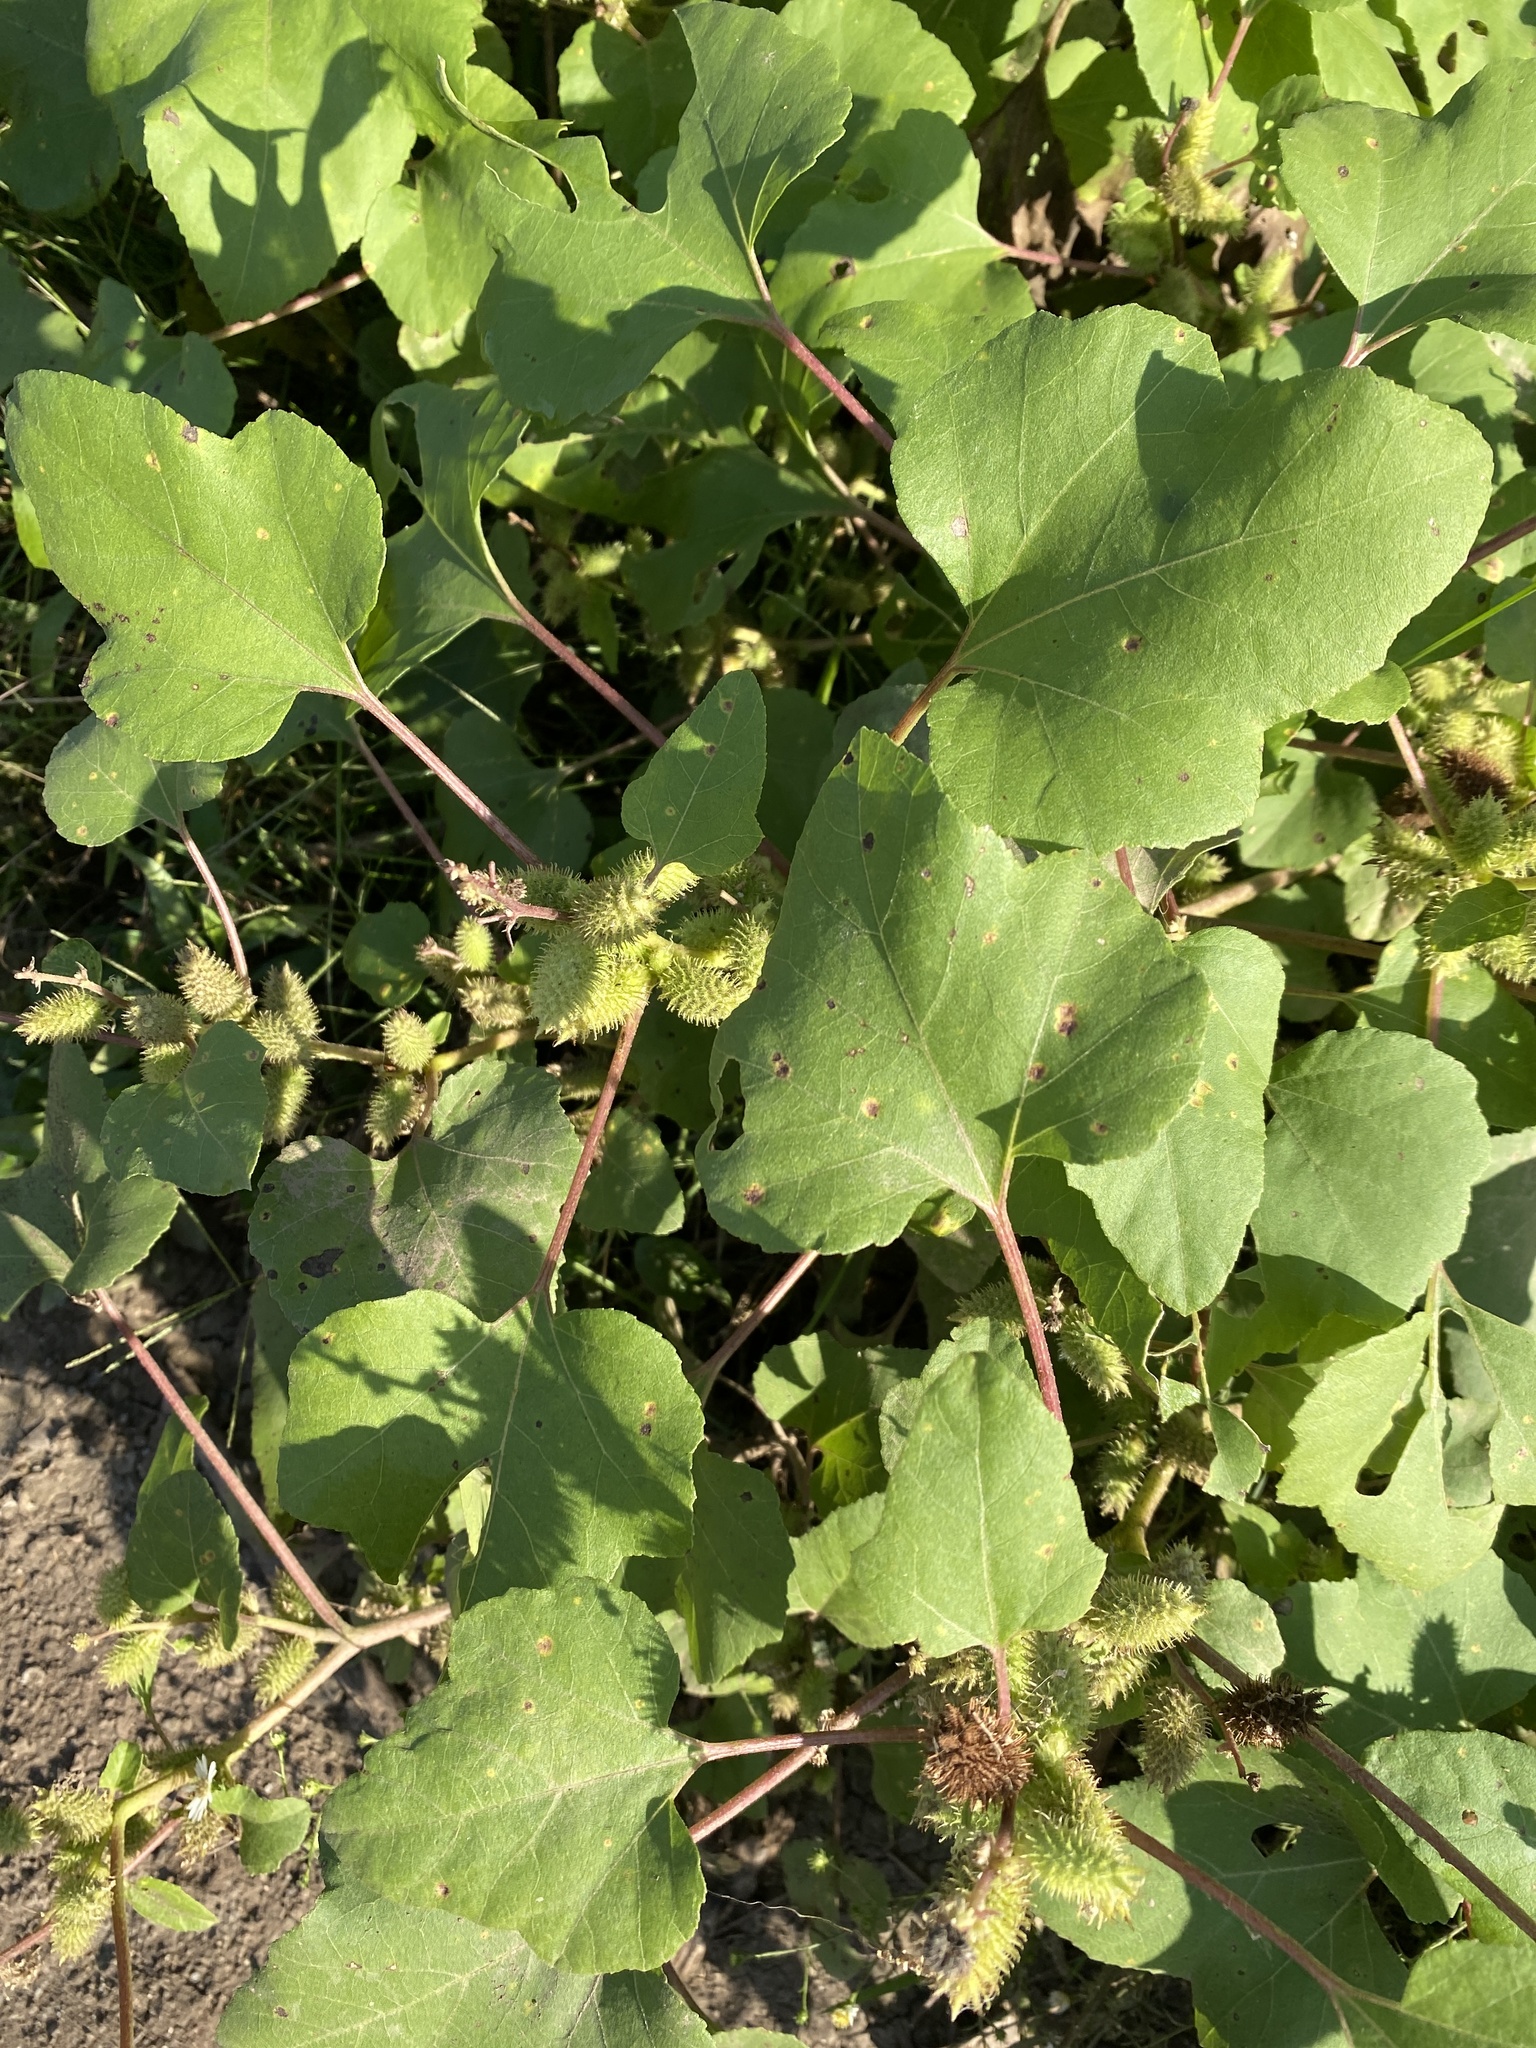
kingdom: Plantae
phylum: Tracheophyta
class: Magnoliopsida
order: Asterales
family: Asteraceae
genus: Xanthium
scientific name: Xanthium strumarium
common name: Rough cocklebur
